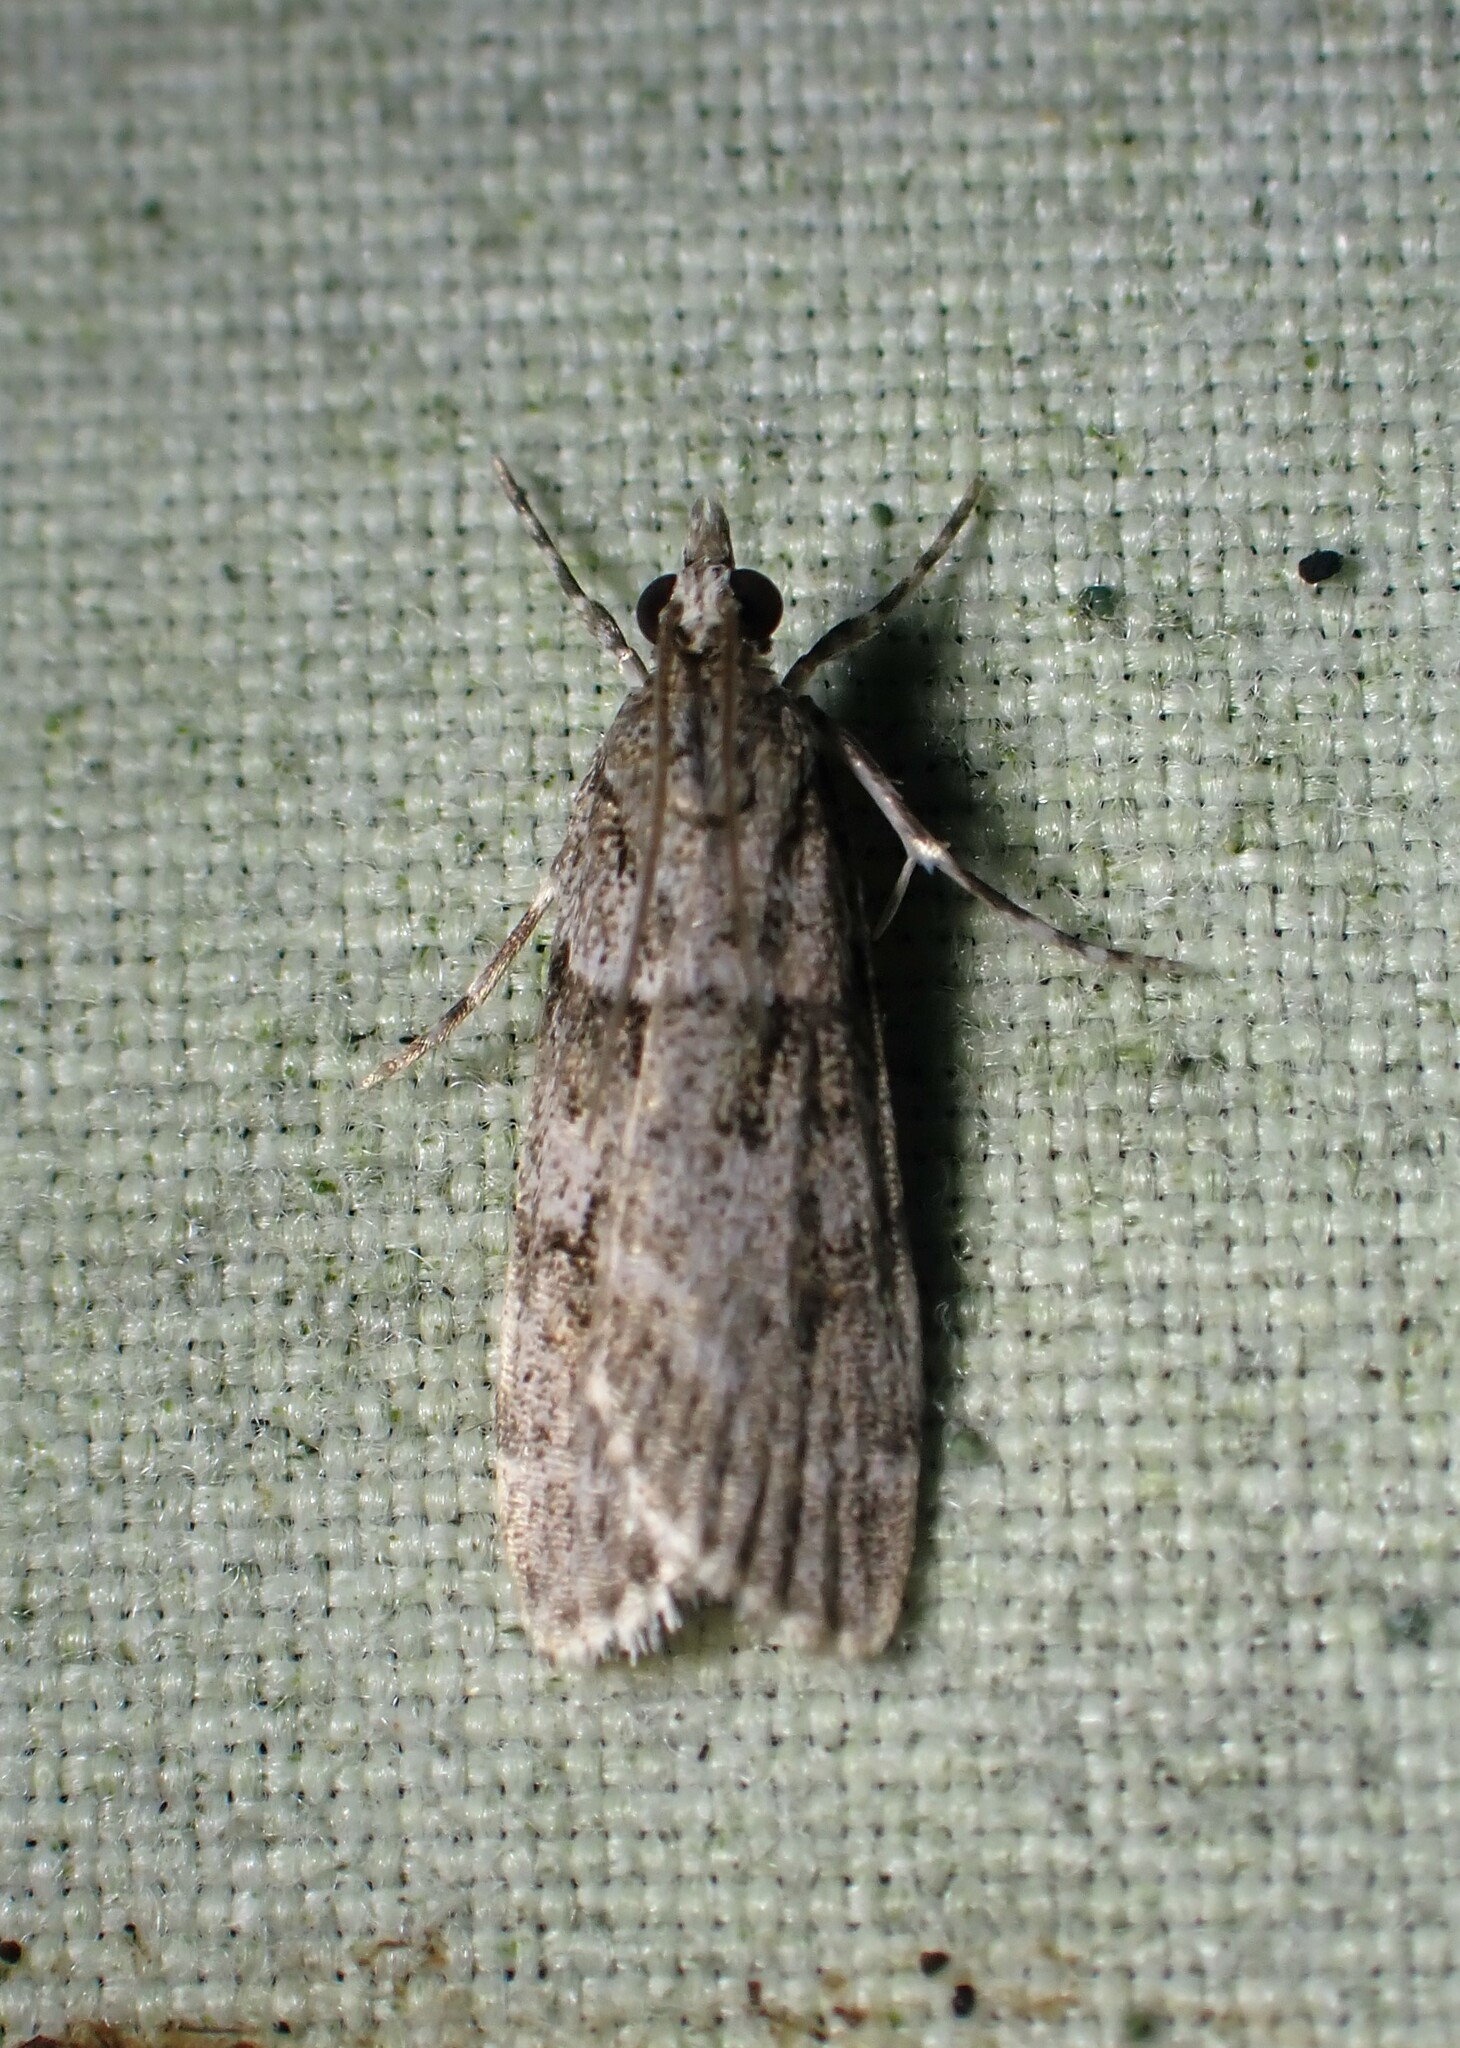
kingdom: Animalia
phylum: Arthropoda
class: Insecta
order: Lepidoptera
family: Crambidae
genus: Scoparia
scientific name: Scoparia biplagialis
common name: Double-striped scoparia moth
